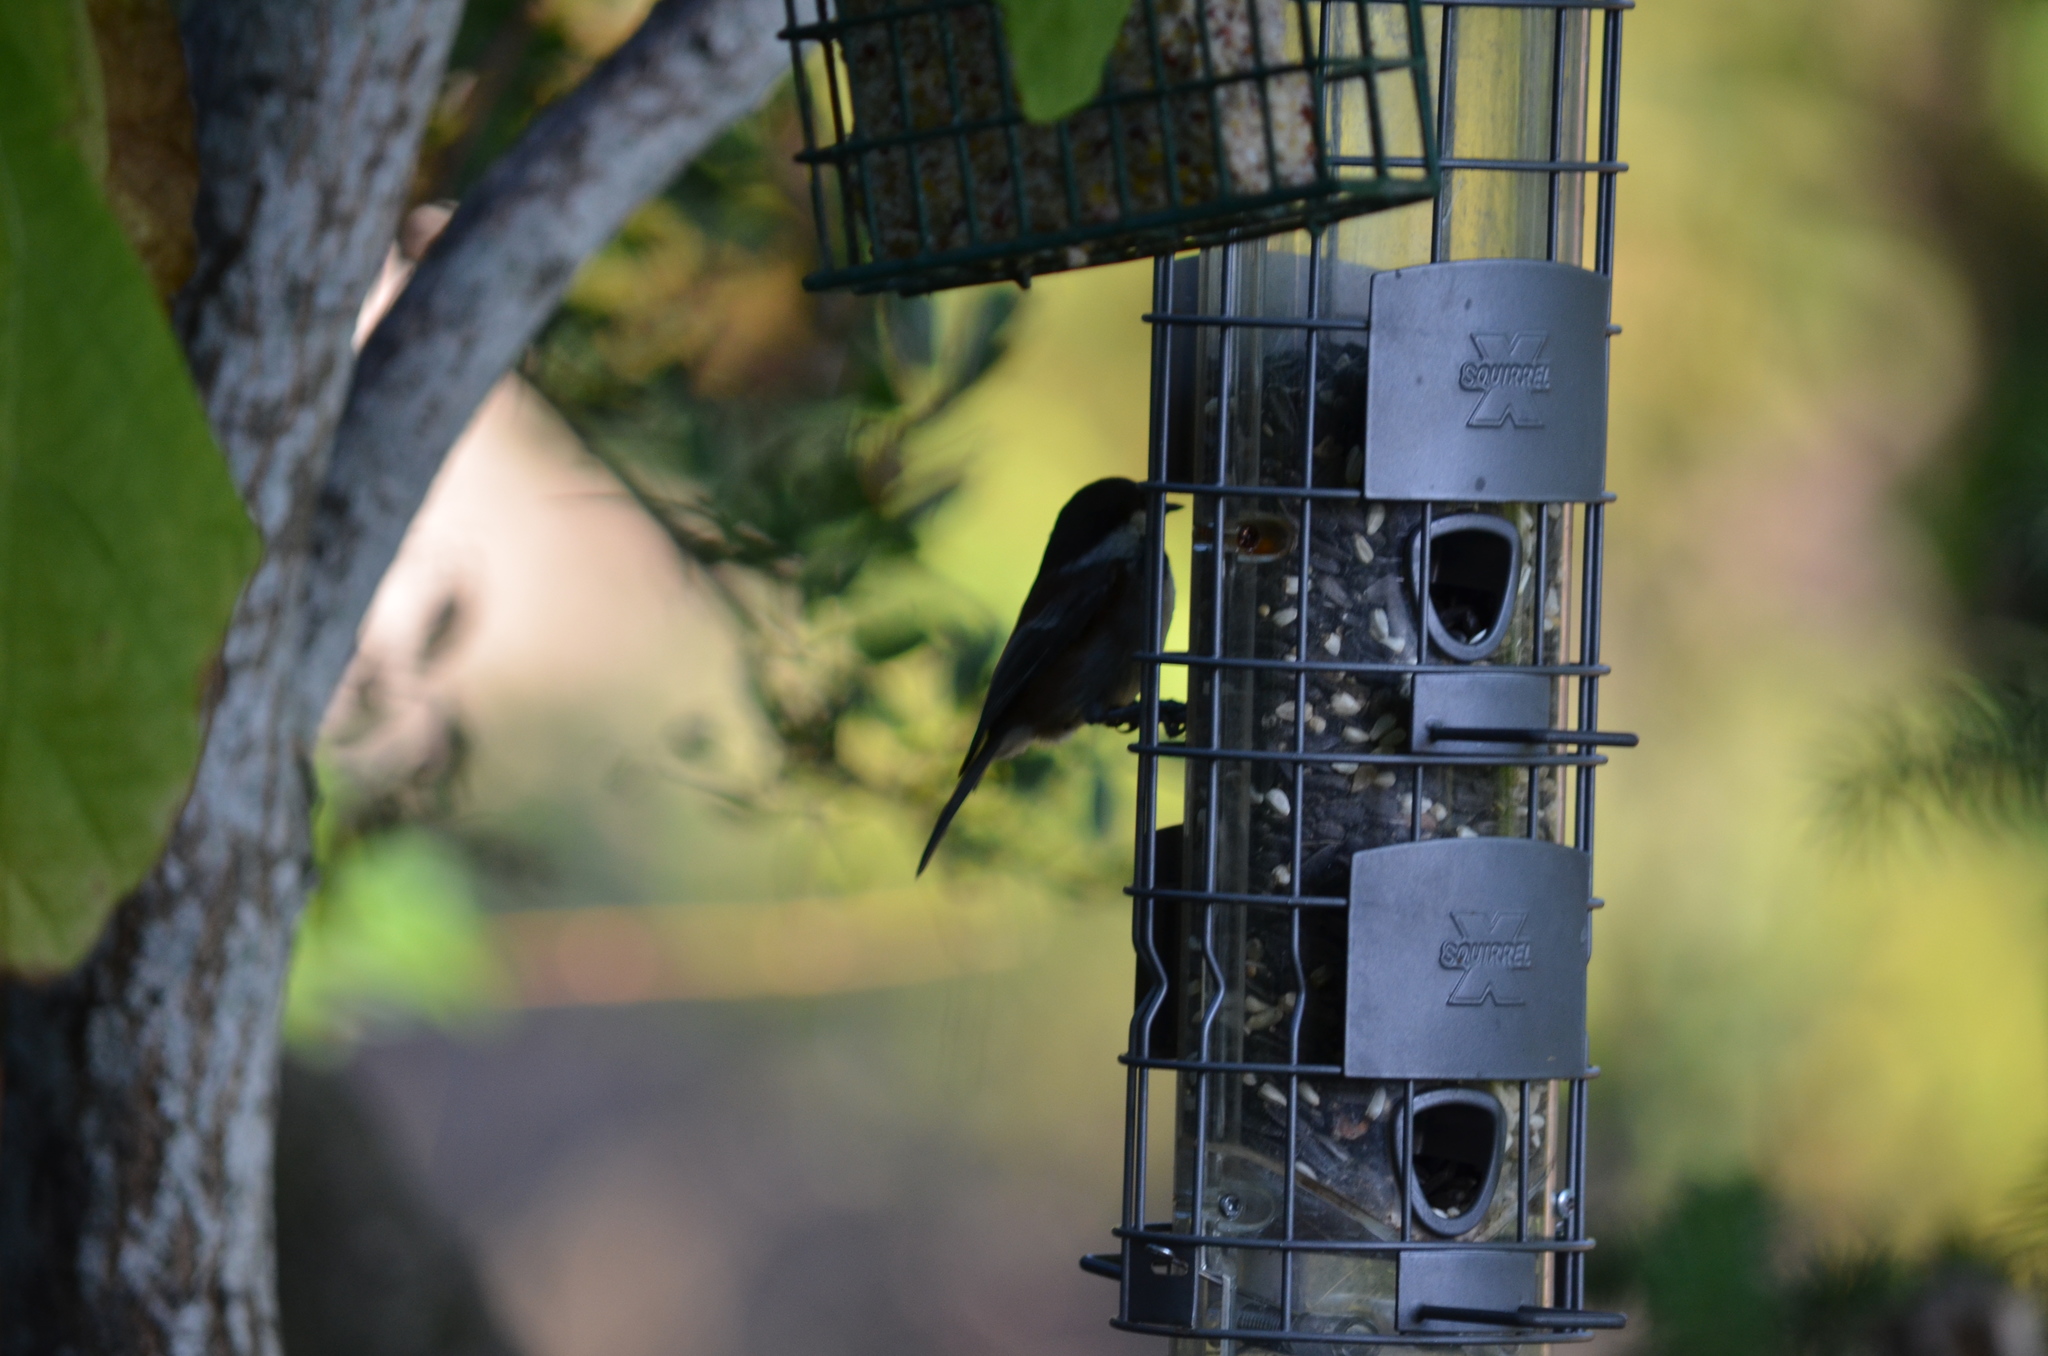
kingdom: Animalia
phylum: Chordata
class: Aves
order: Passeriformes
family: Paridae
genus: Poecile
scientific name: Poecile rufescens
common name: Chestnut-backed chickadee
